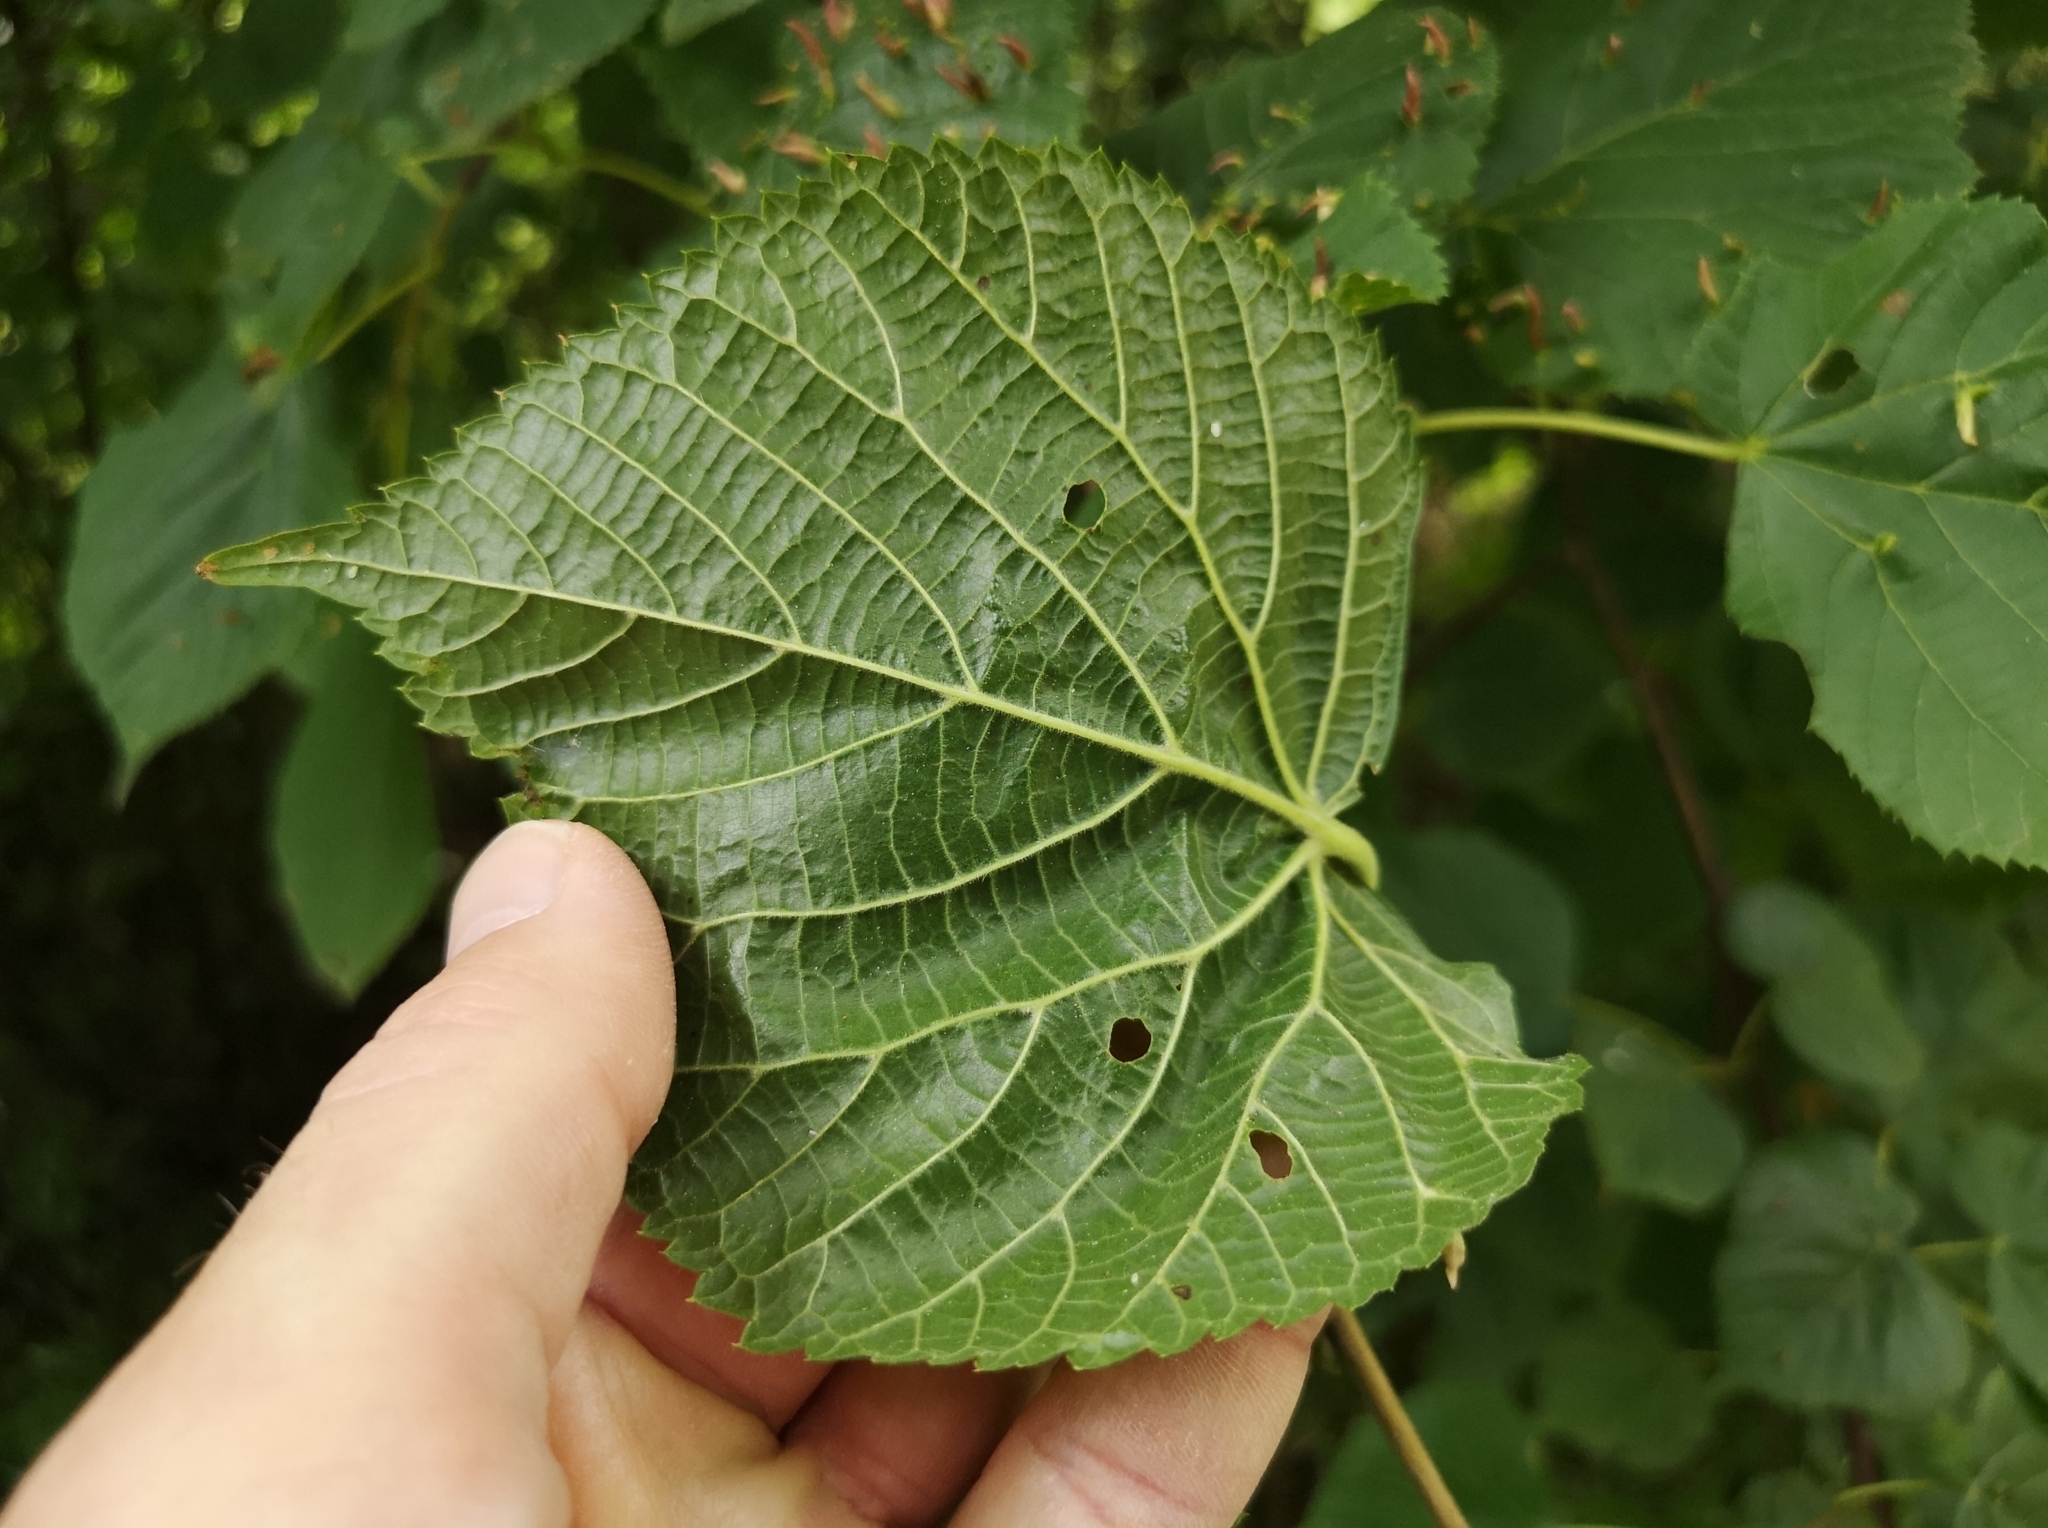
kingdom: Plantae
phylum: Tracheophyta
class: Magnoliopsida
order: Malvales
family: Malvaceae
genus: Tilia
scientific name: Tilia platyphyllos
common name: Large-leaved lime
